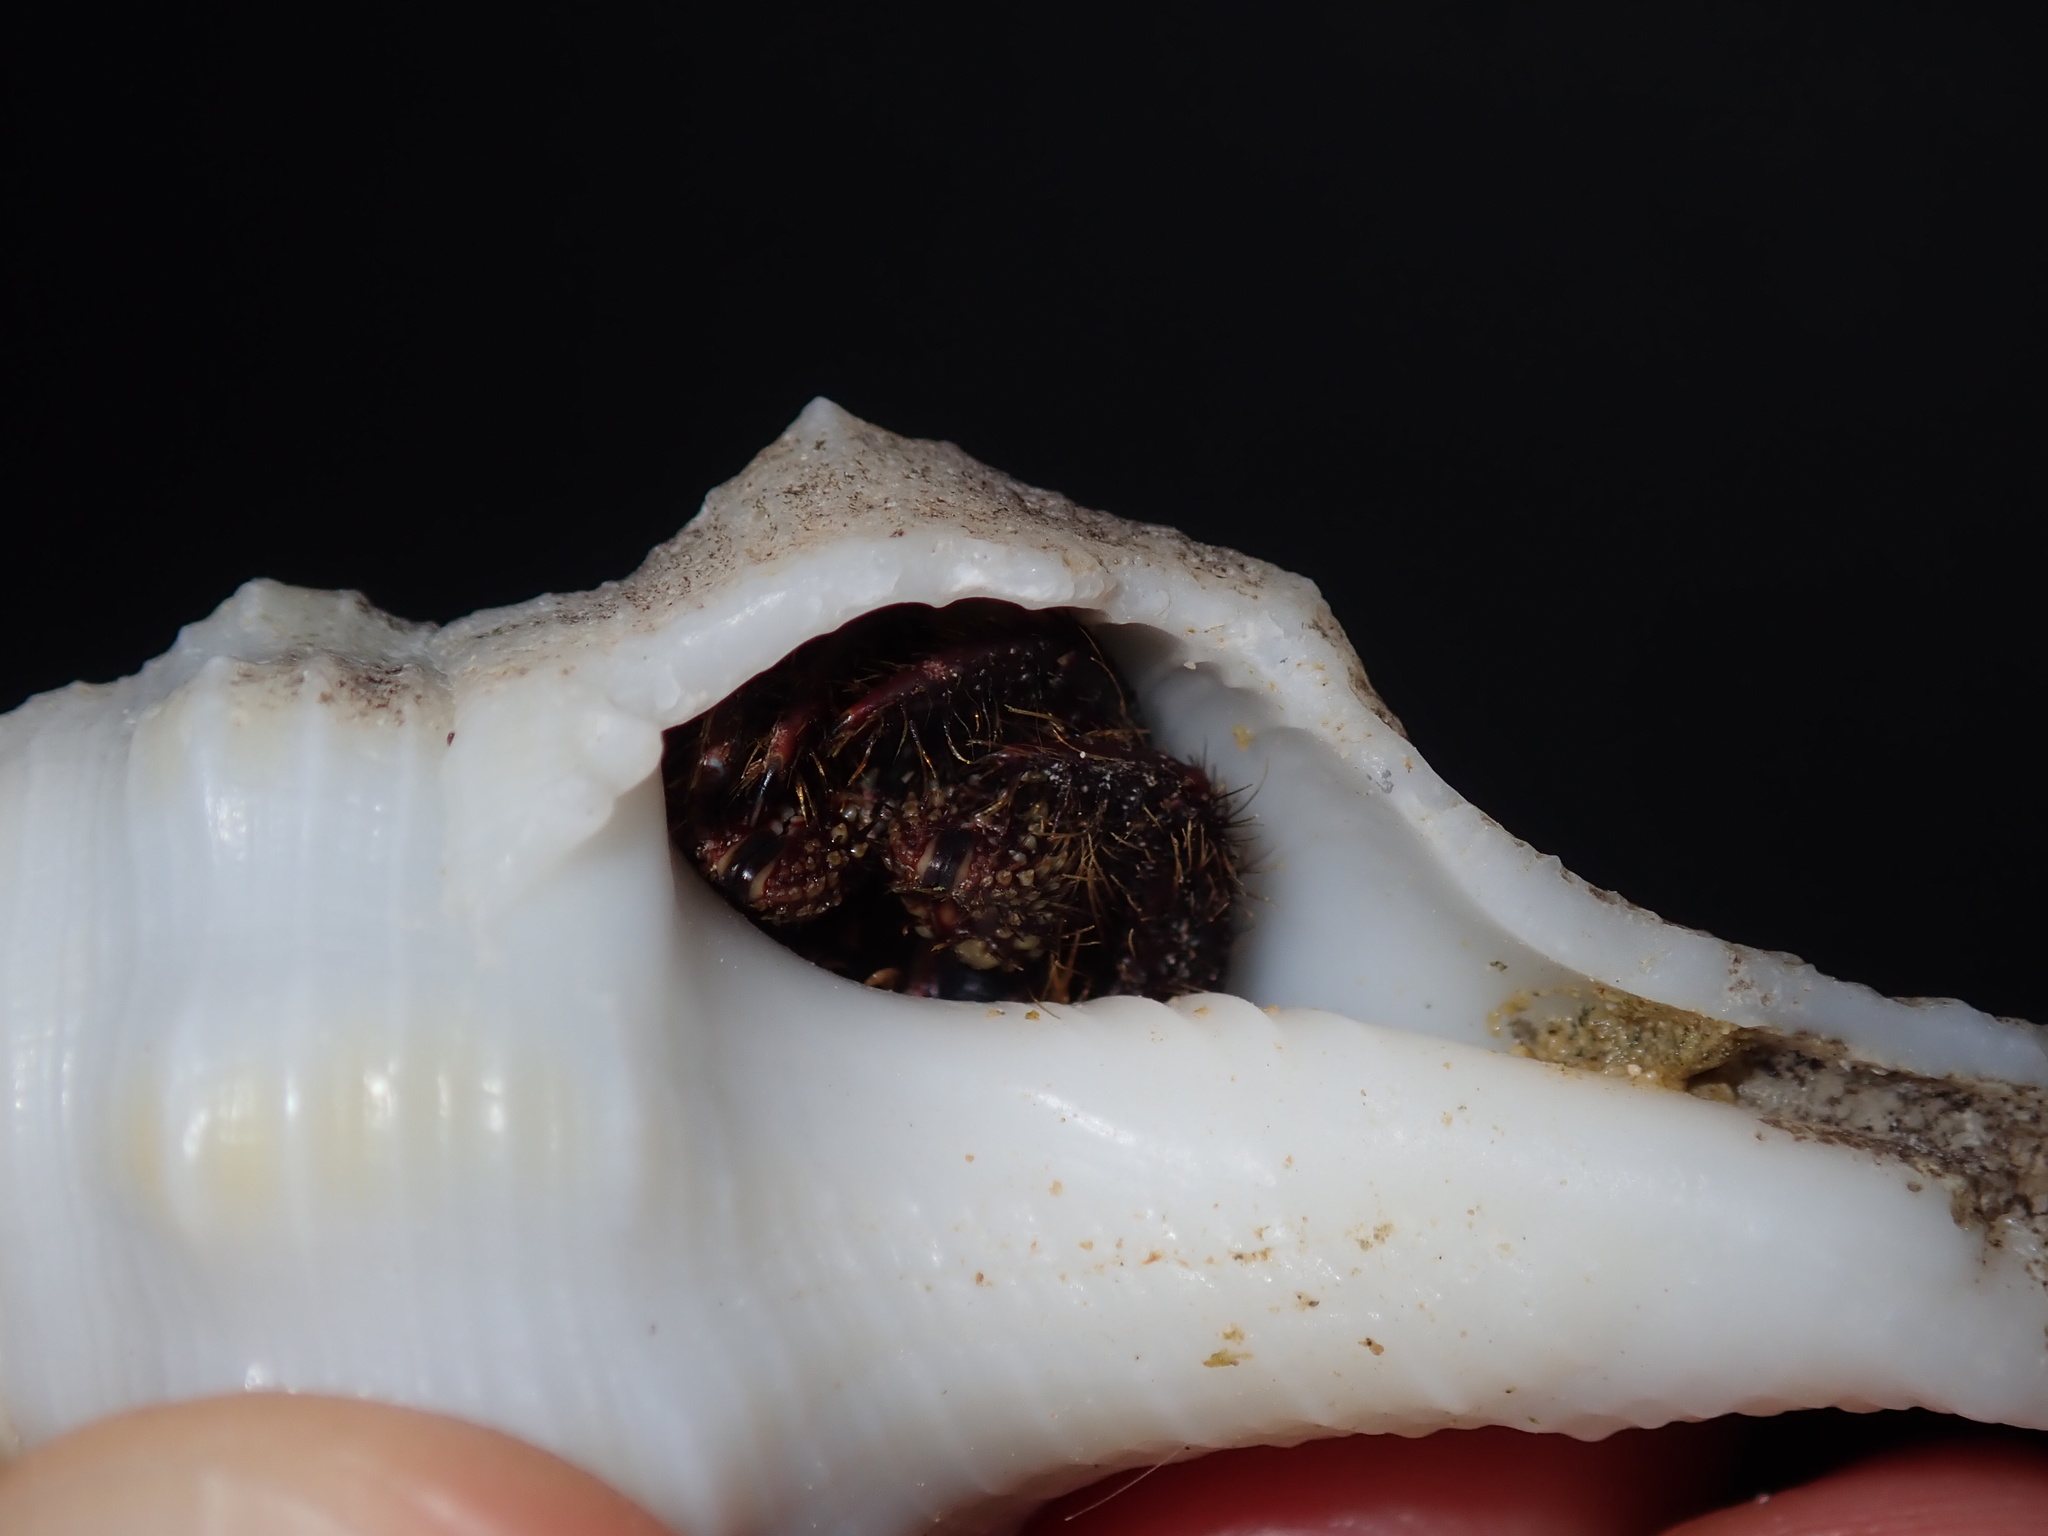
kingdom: Animalia
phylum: Arthropoda
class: Malacostraca
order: Decapoda
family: Diogenidae
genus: Clibanarius
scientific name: Clibanarius corallinus
